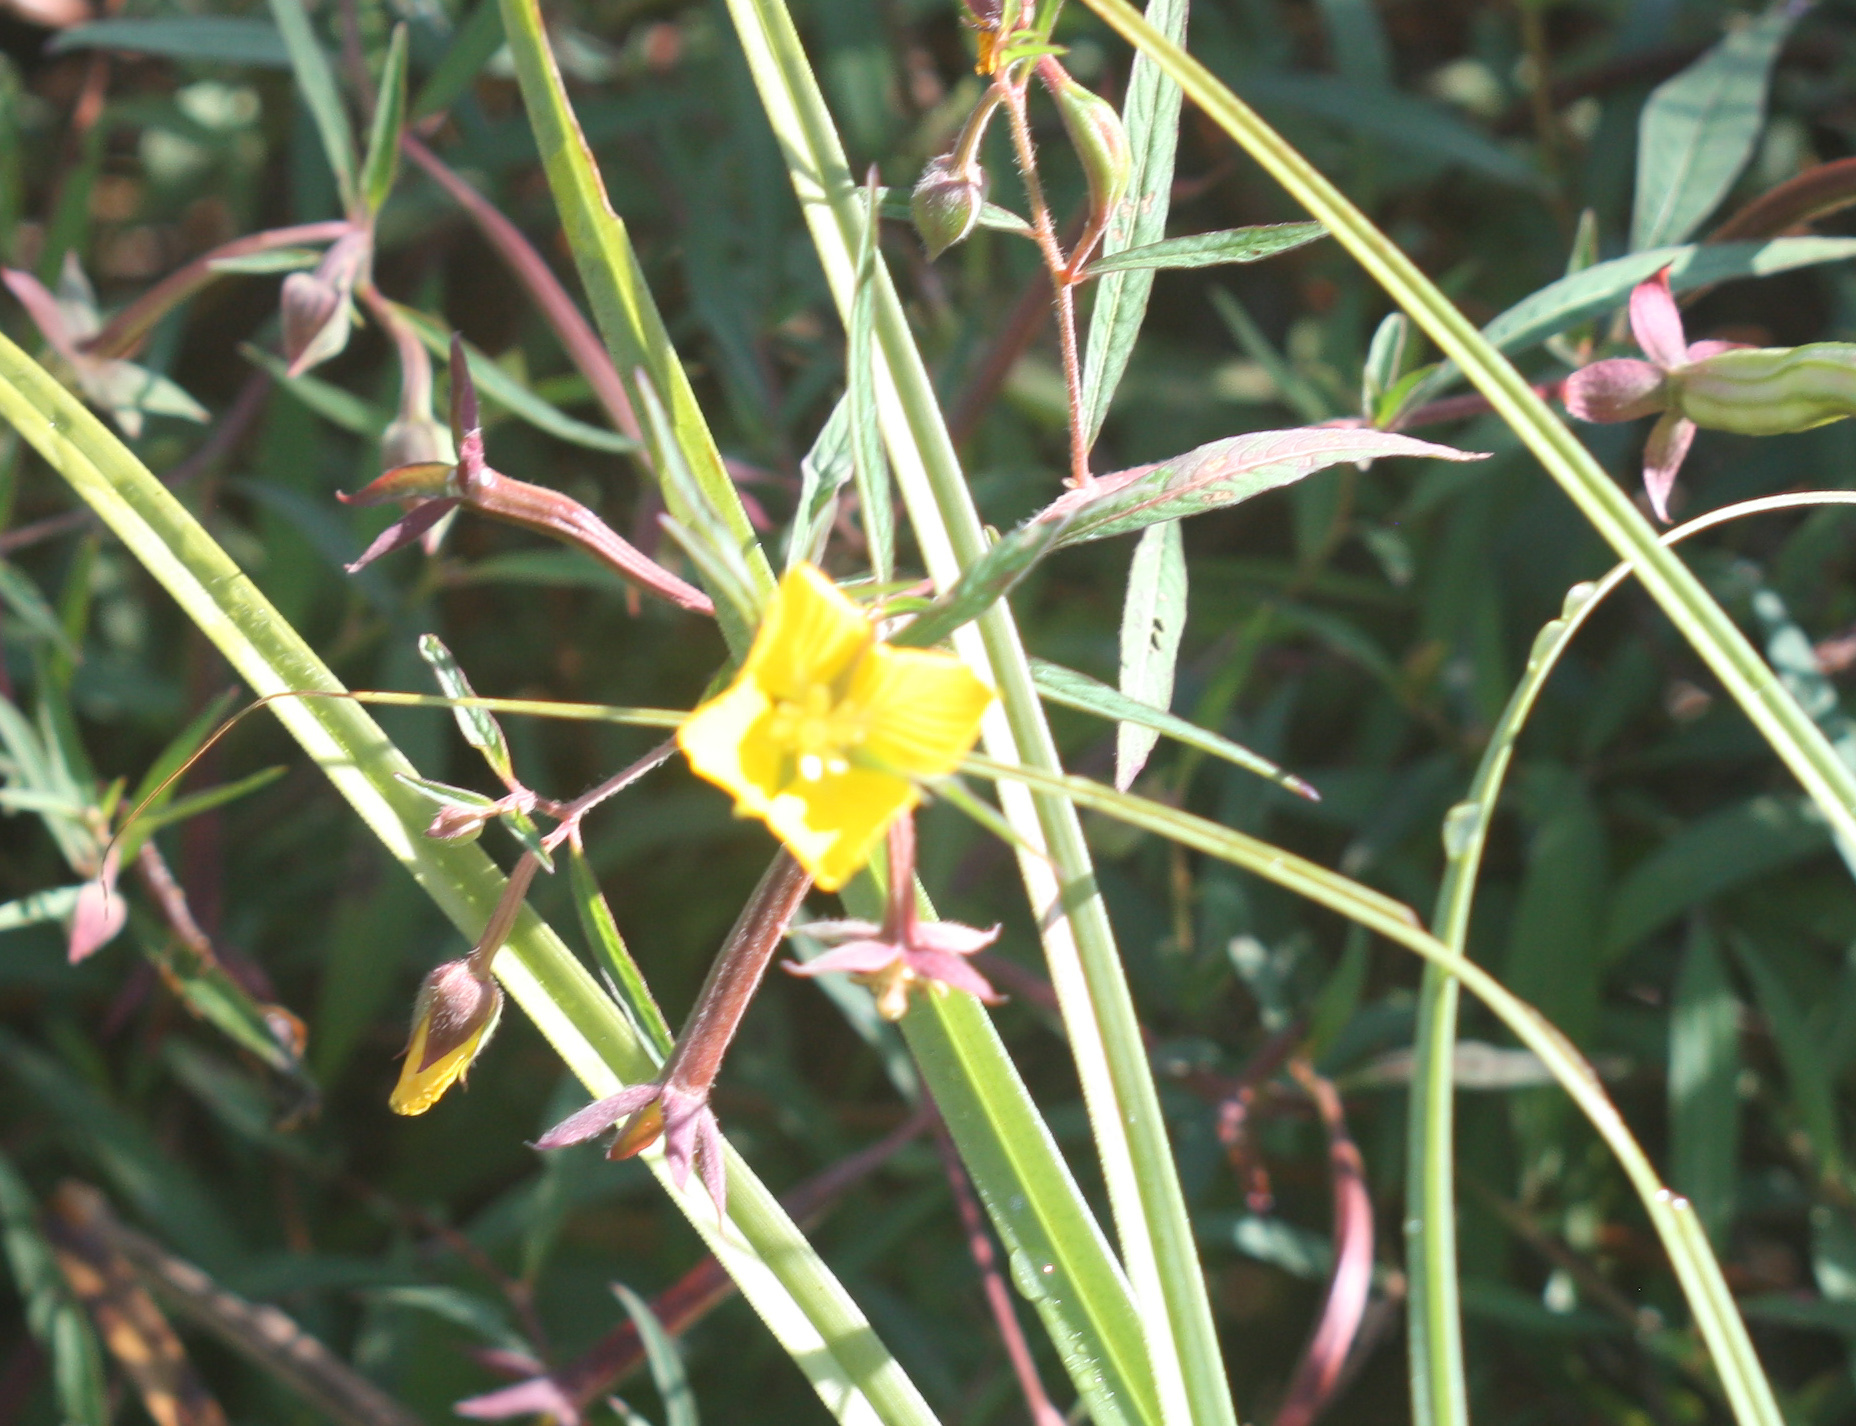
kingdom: Plantae
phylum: Tracheophyta
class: Magnoliopsida
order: Myrtales
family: Onagraceae
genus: Ludwigia
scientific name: Ludwigia octovalvis
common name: Water-primrose
